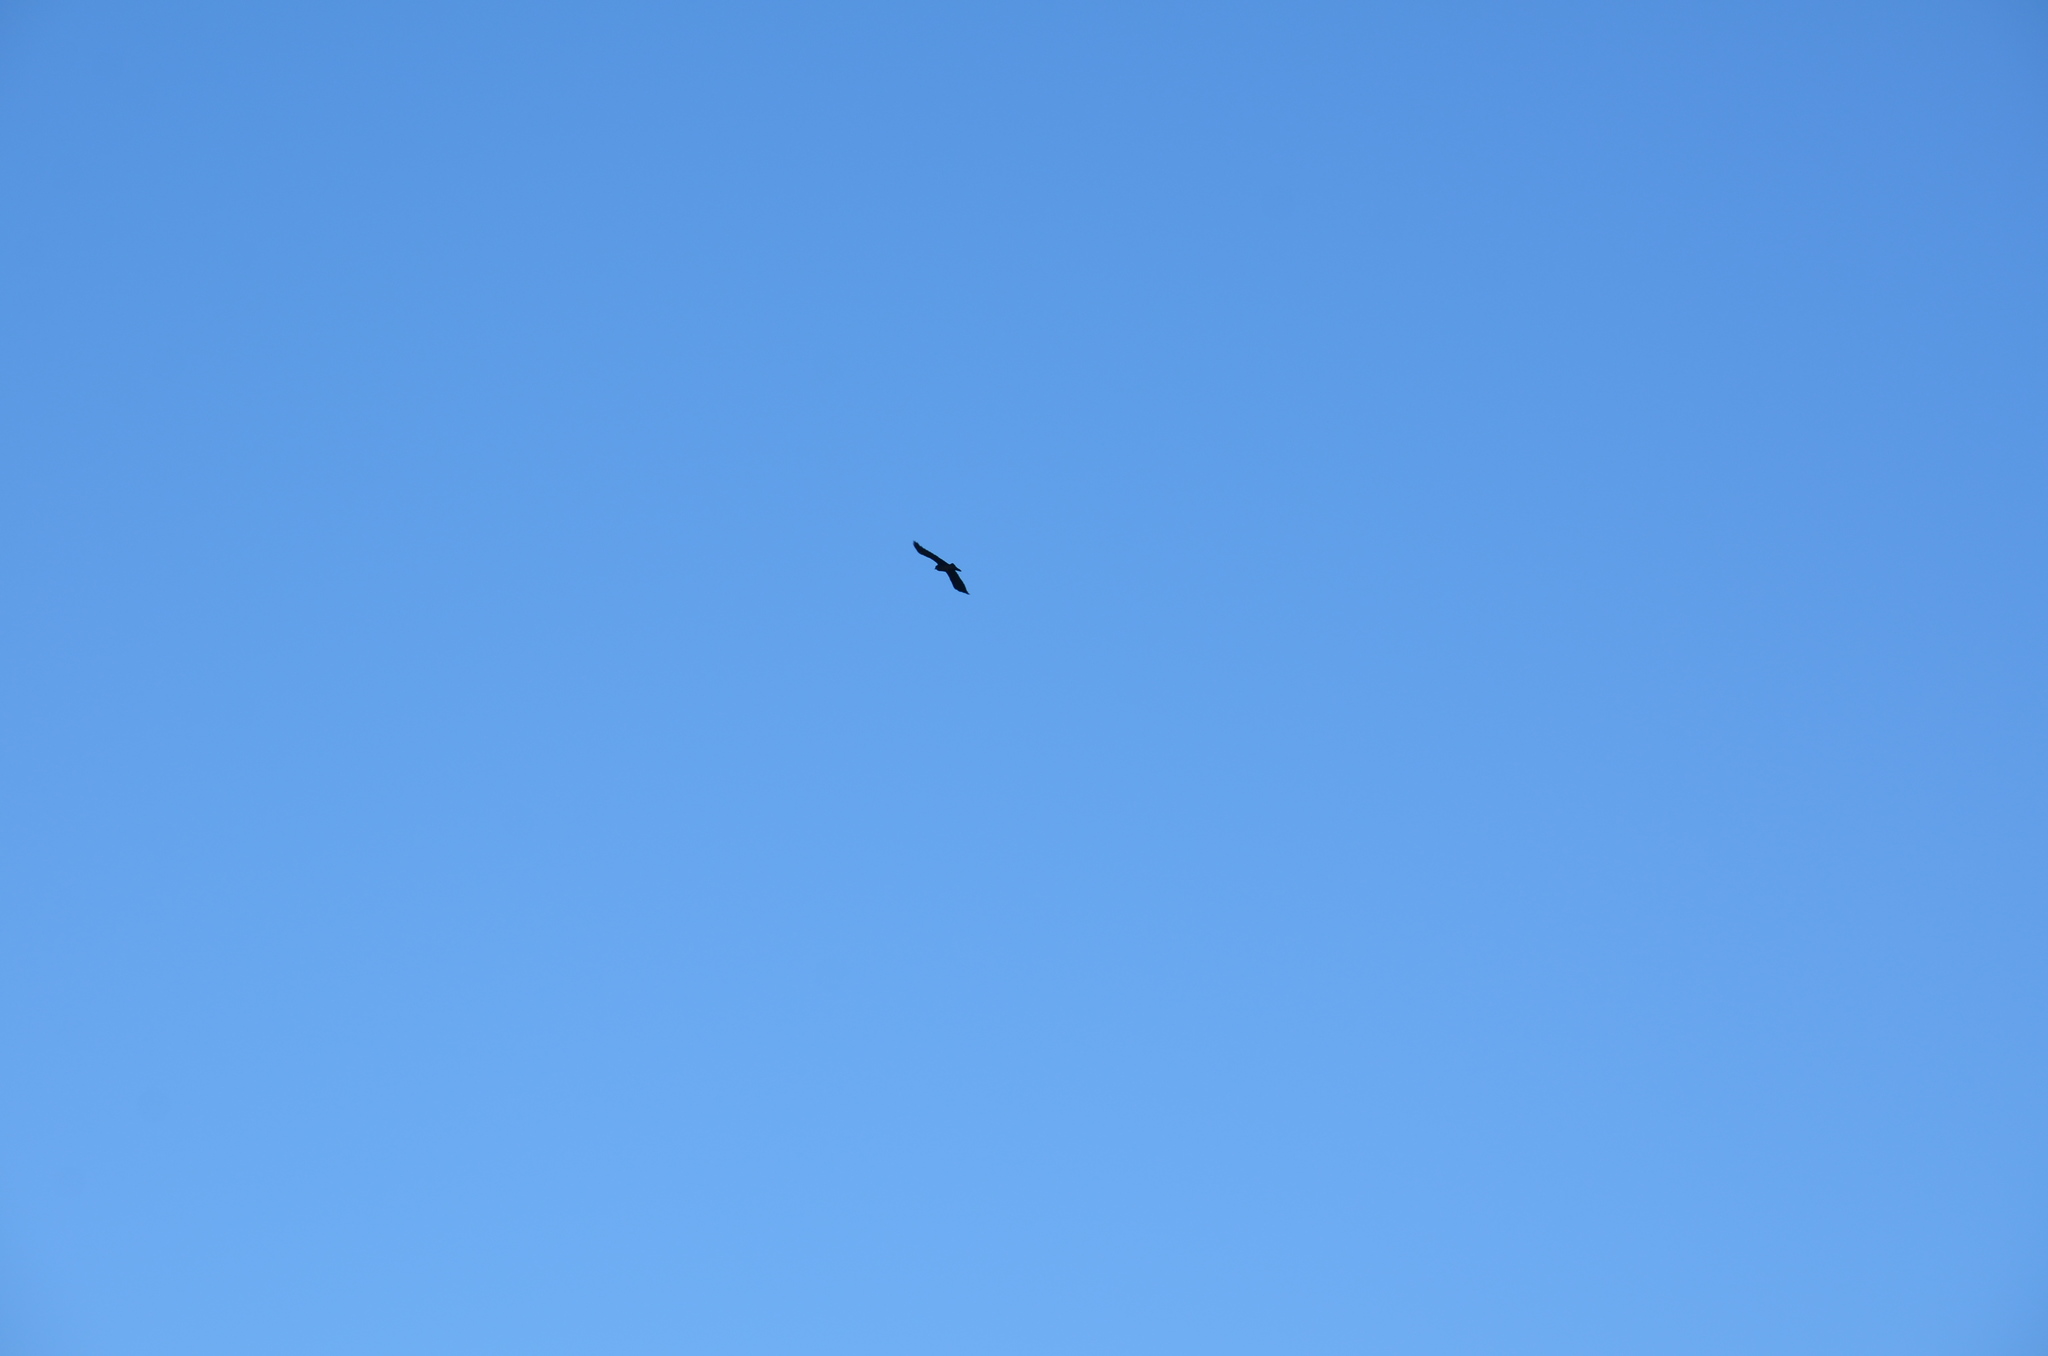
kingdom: Animalia
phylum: Chordata
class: Aves
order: Passeriformes
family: Corvidae
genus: Corvus
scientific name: Corvus corax
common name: Common raven
